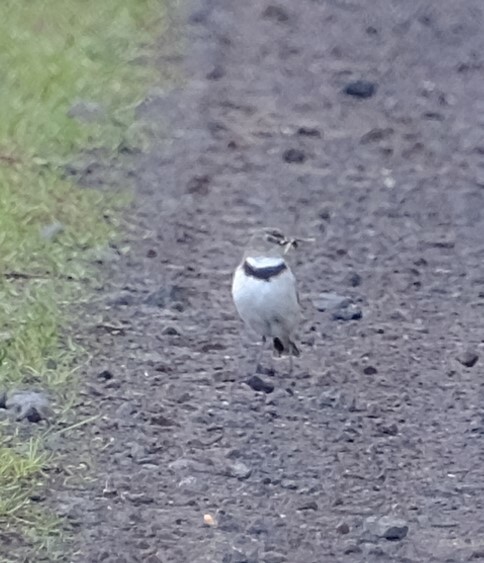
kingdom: Animalia
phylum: Chordata
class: Aves
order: Passeriformes
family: Meliphagidae
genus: Epthianura
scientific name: Epthianura albifrons
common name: White-fronted chat
